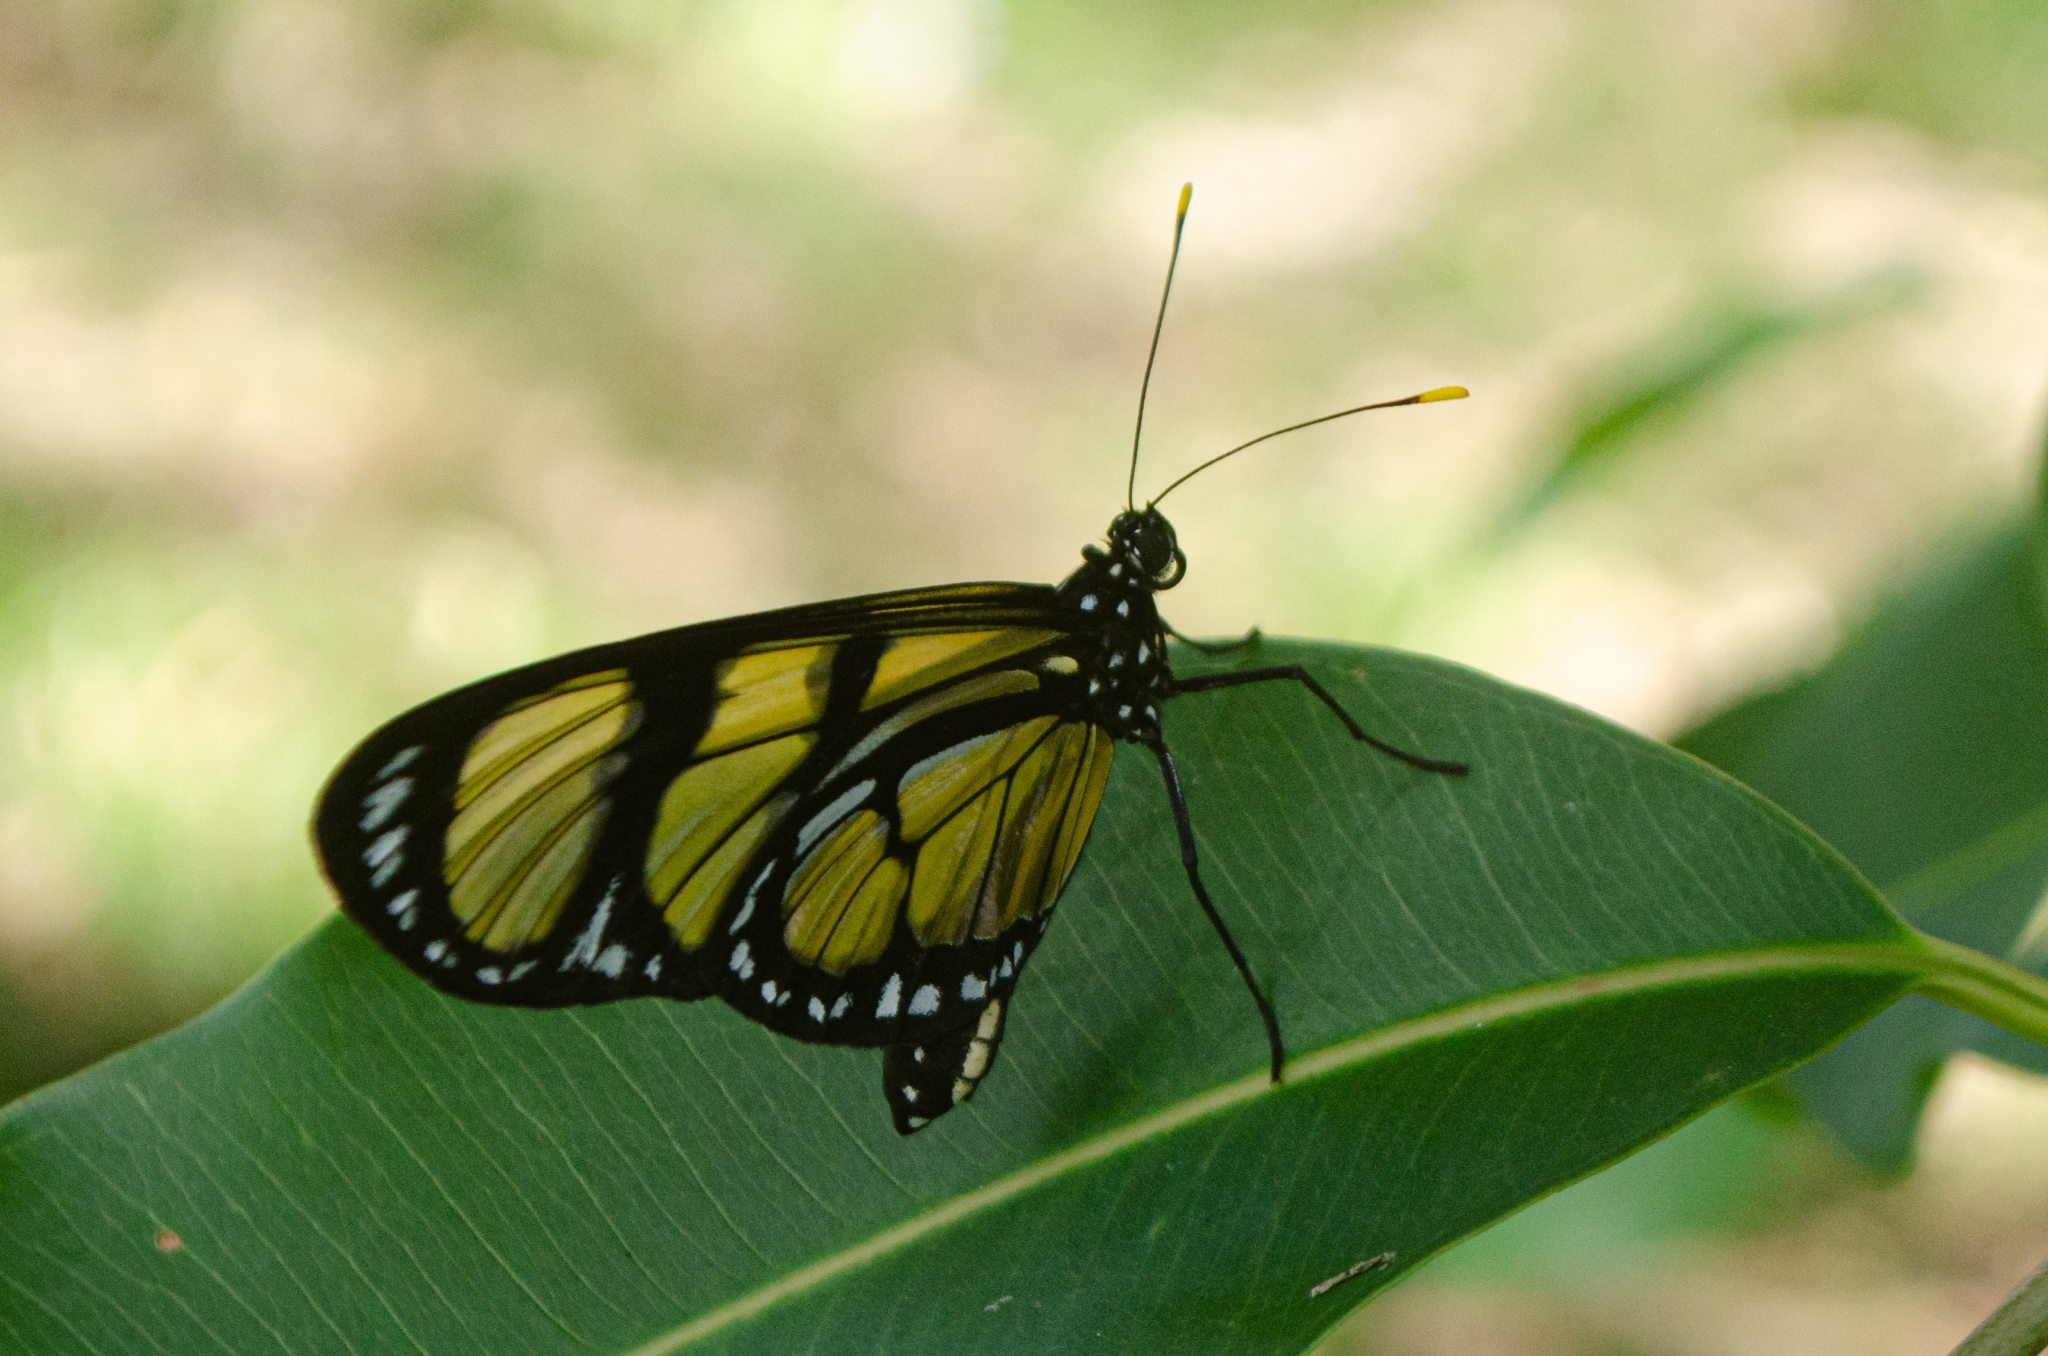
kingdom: Animalia
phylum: Arthropoda
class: Insecta
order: Lepidoptera
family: Nymphalidae
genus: Methona
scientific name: Methona themisto
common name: Themisto amberwing
